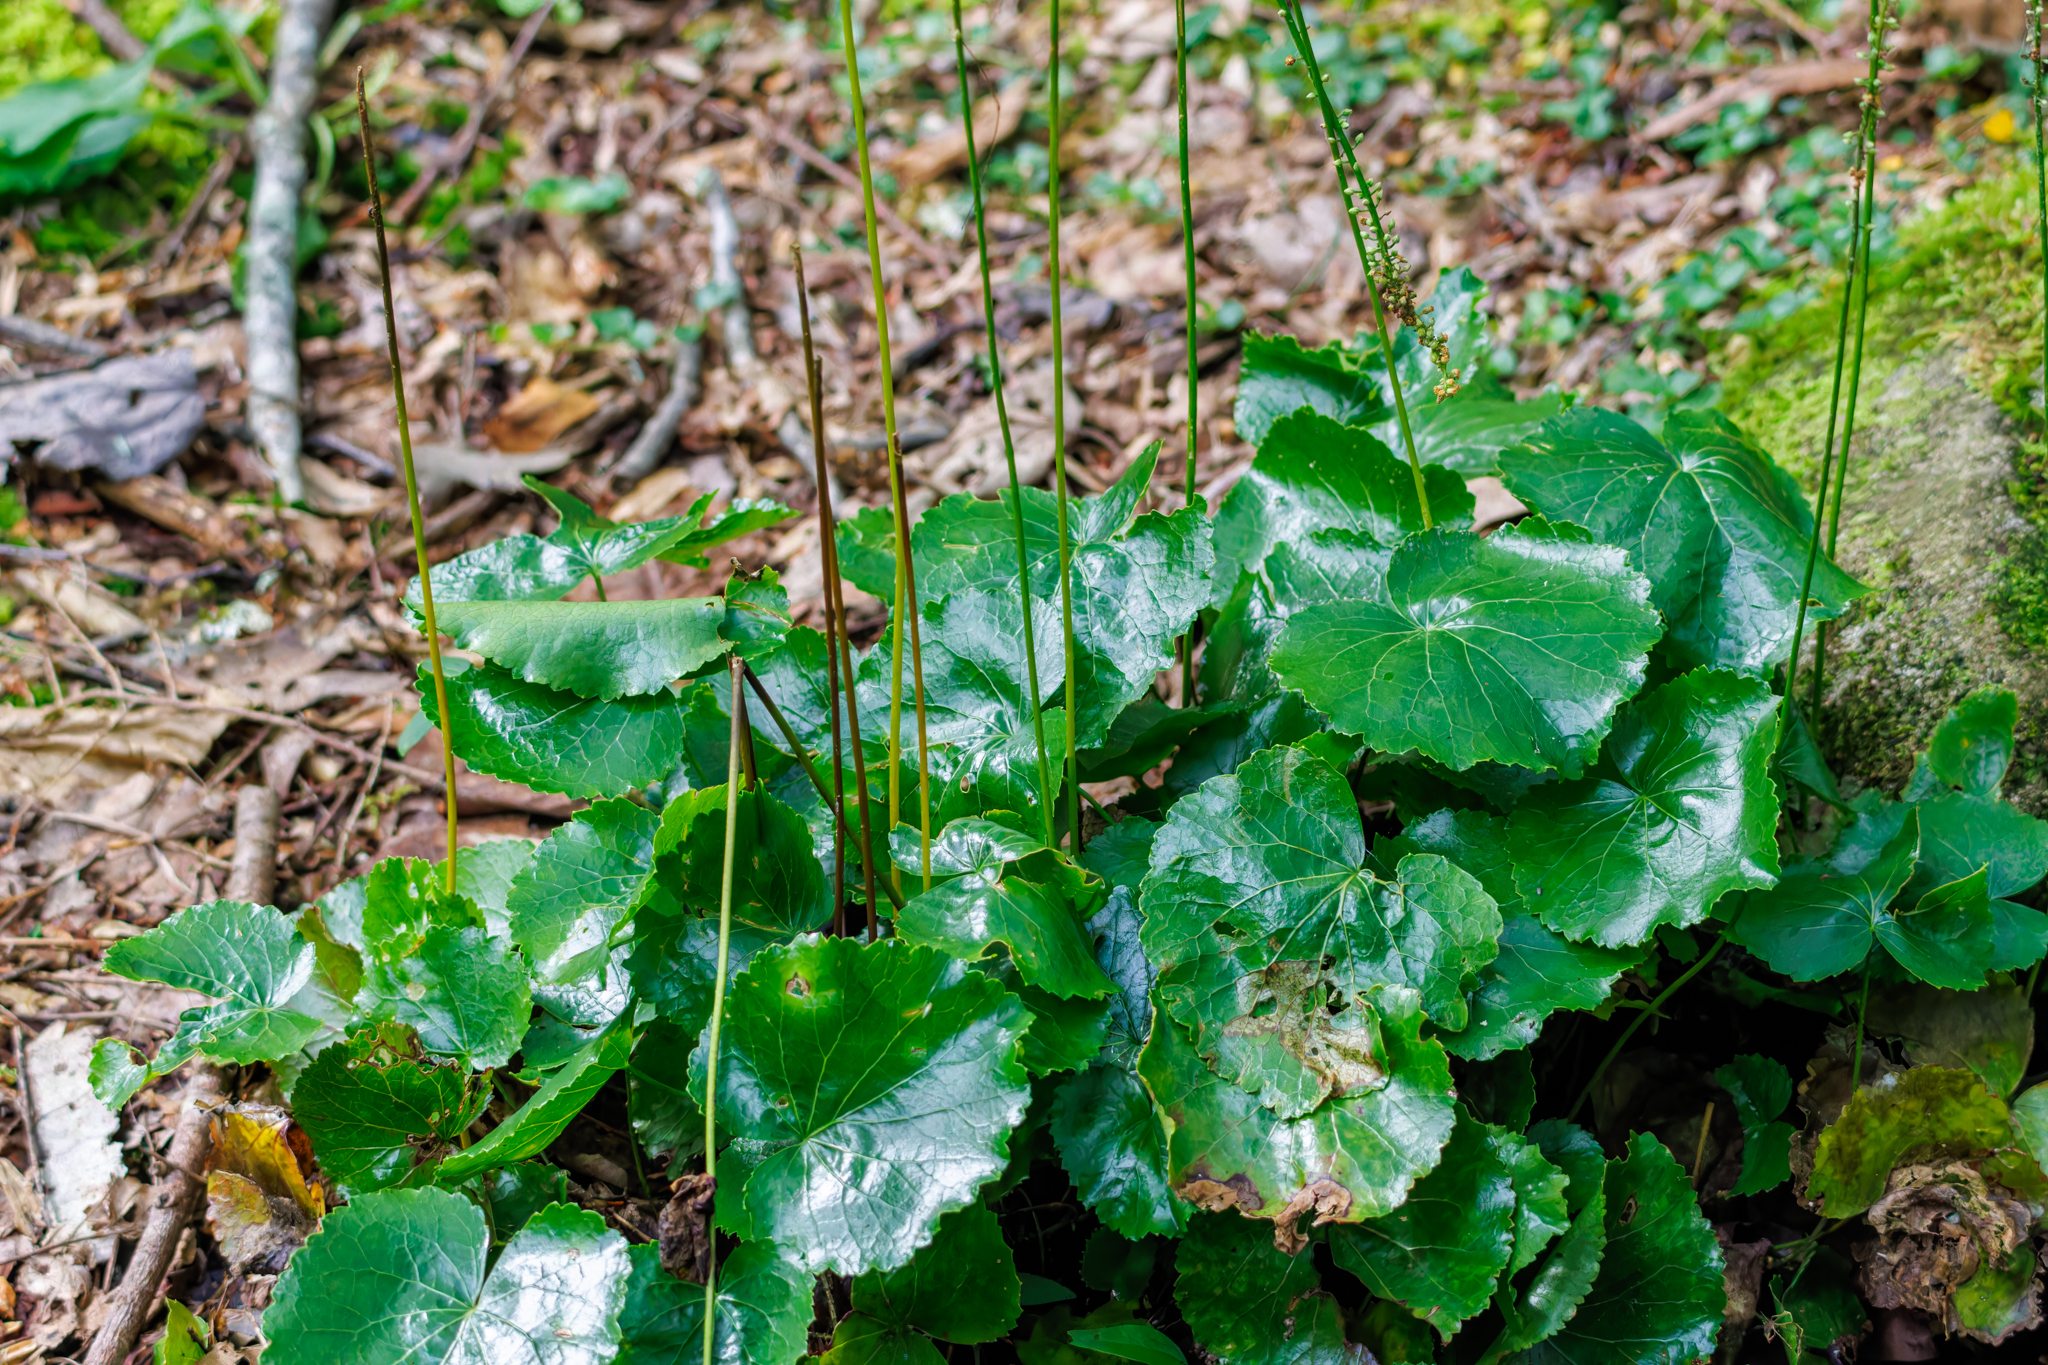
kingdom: Plantae
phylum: Tracheophyta
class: Magnoliopsida
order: Ericales
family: Diapensiaceae
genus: Galax
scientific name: Galax urceolata
